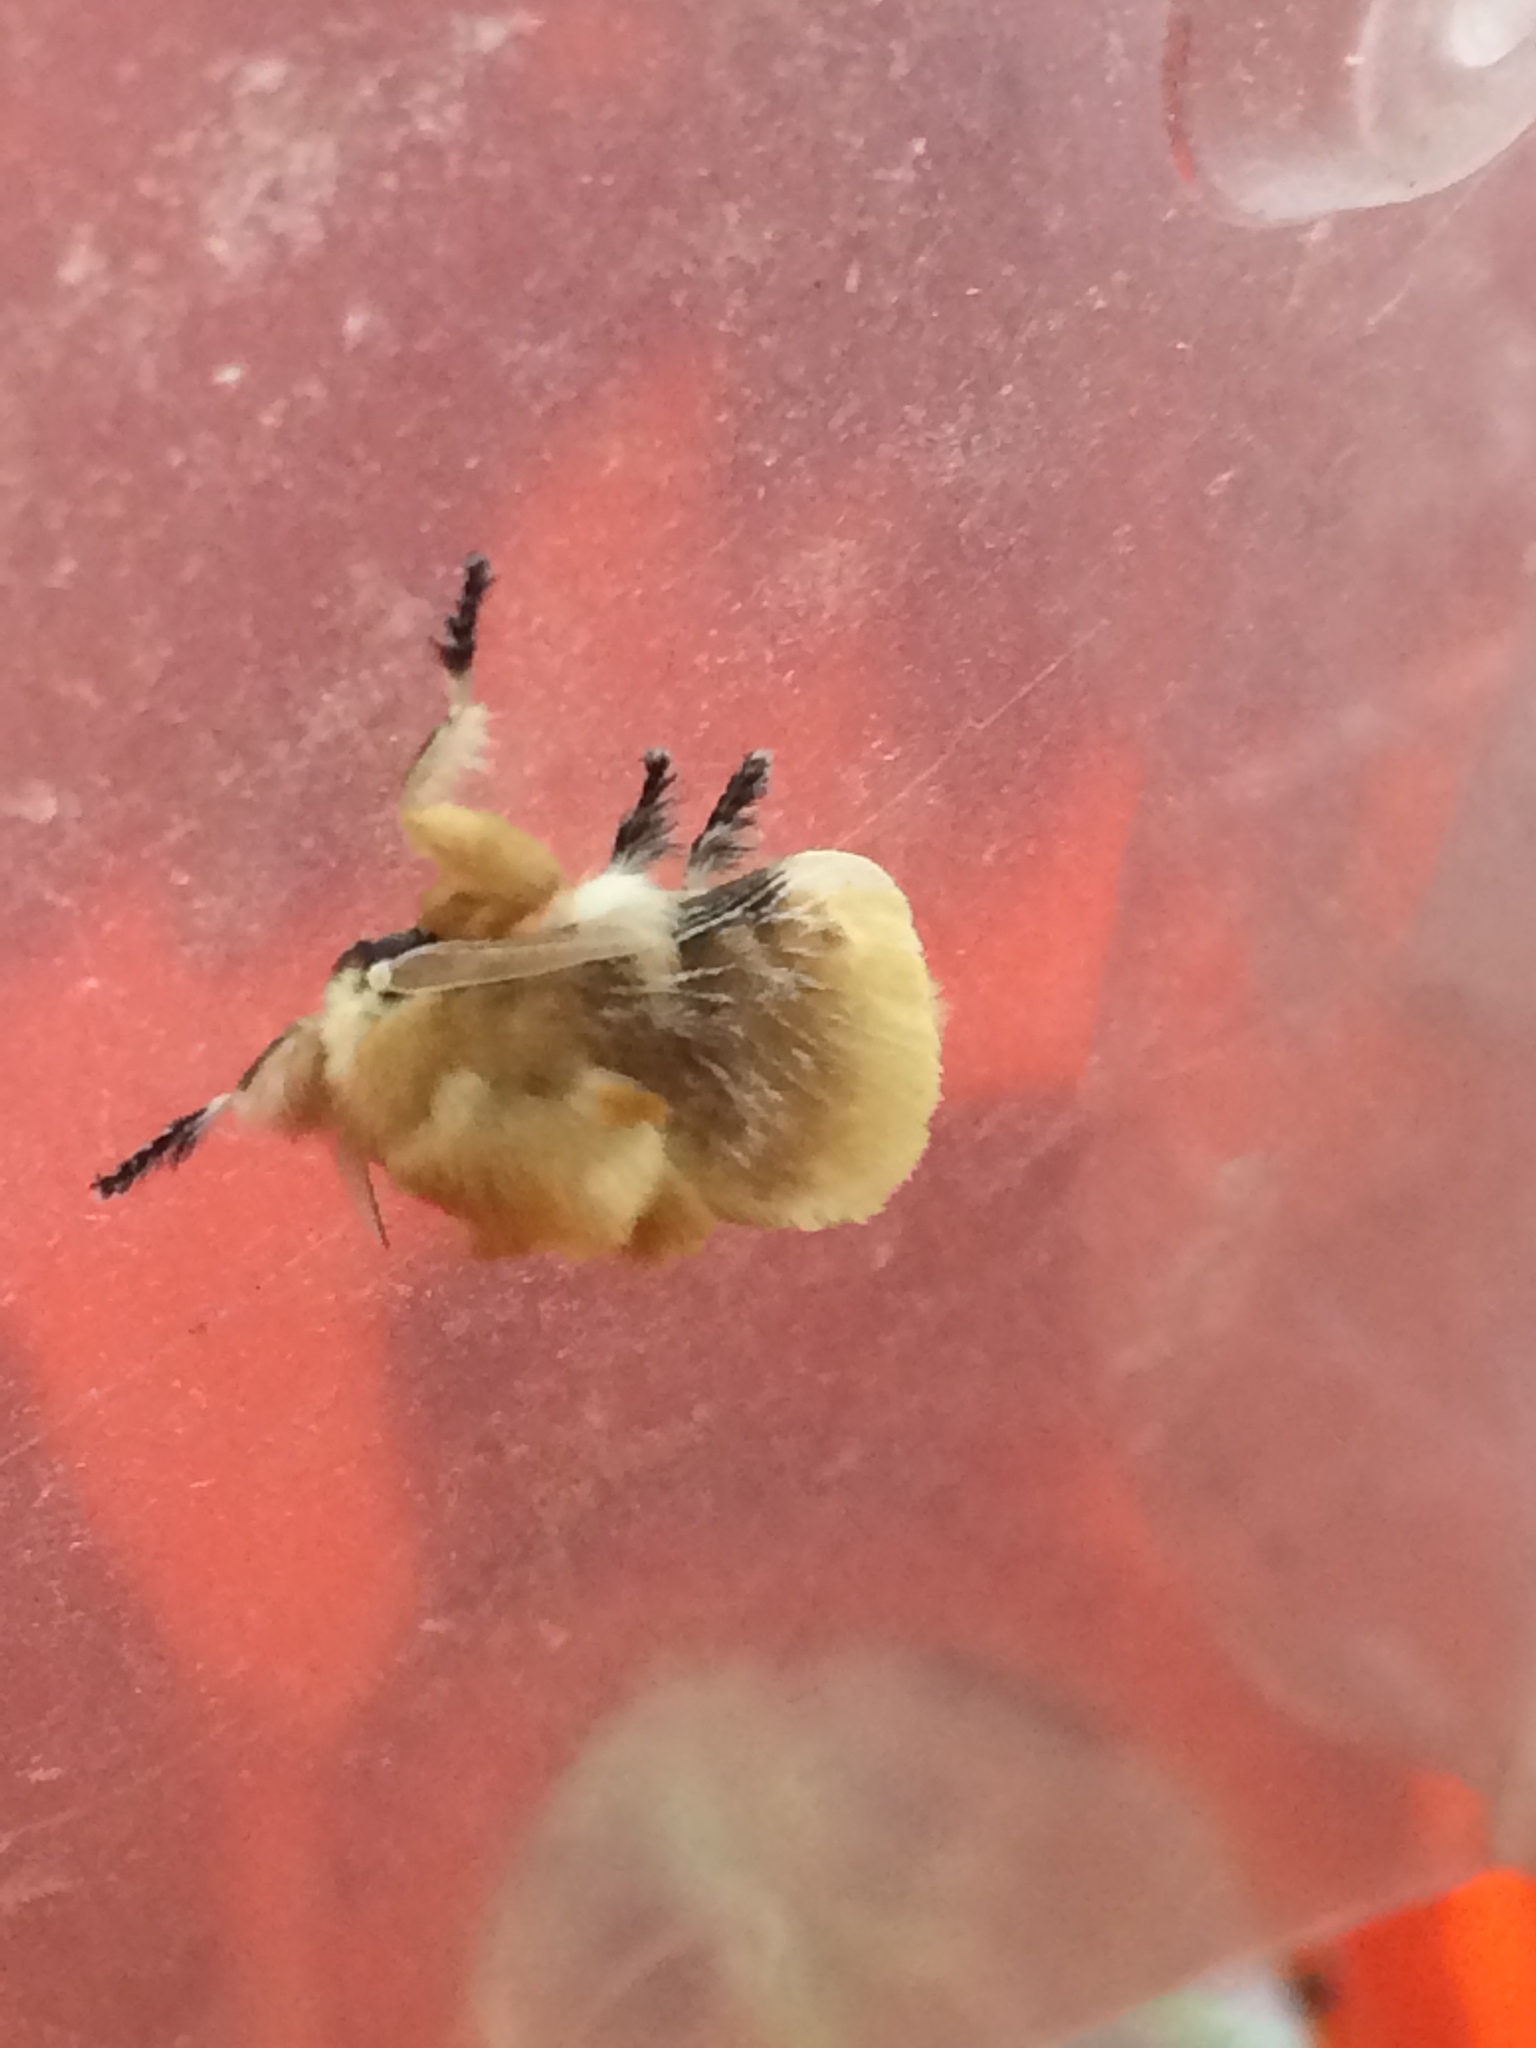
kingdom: Animalia
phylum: Arthropoda
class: Insecta
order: Lepidoptera
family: Megalopygidae
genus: Megalopyge
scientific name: Megalopyge opercularis
